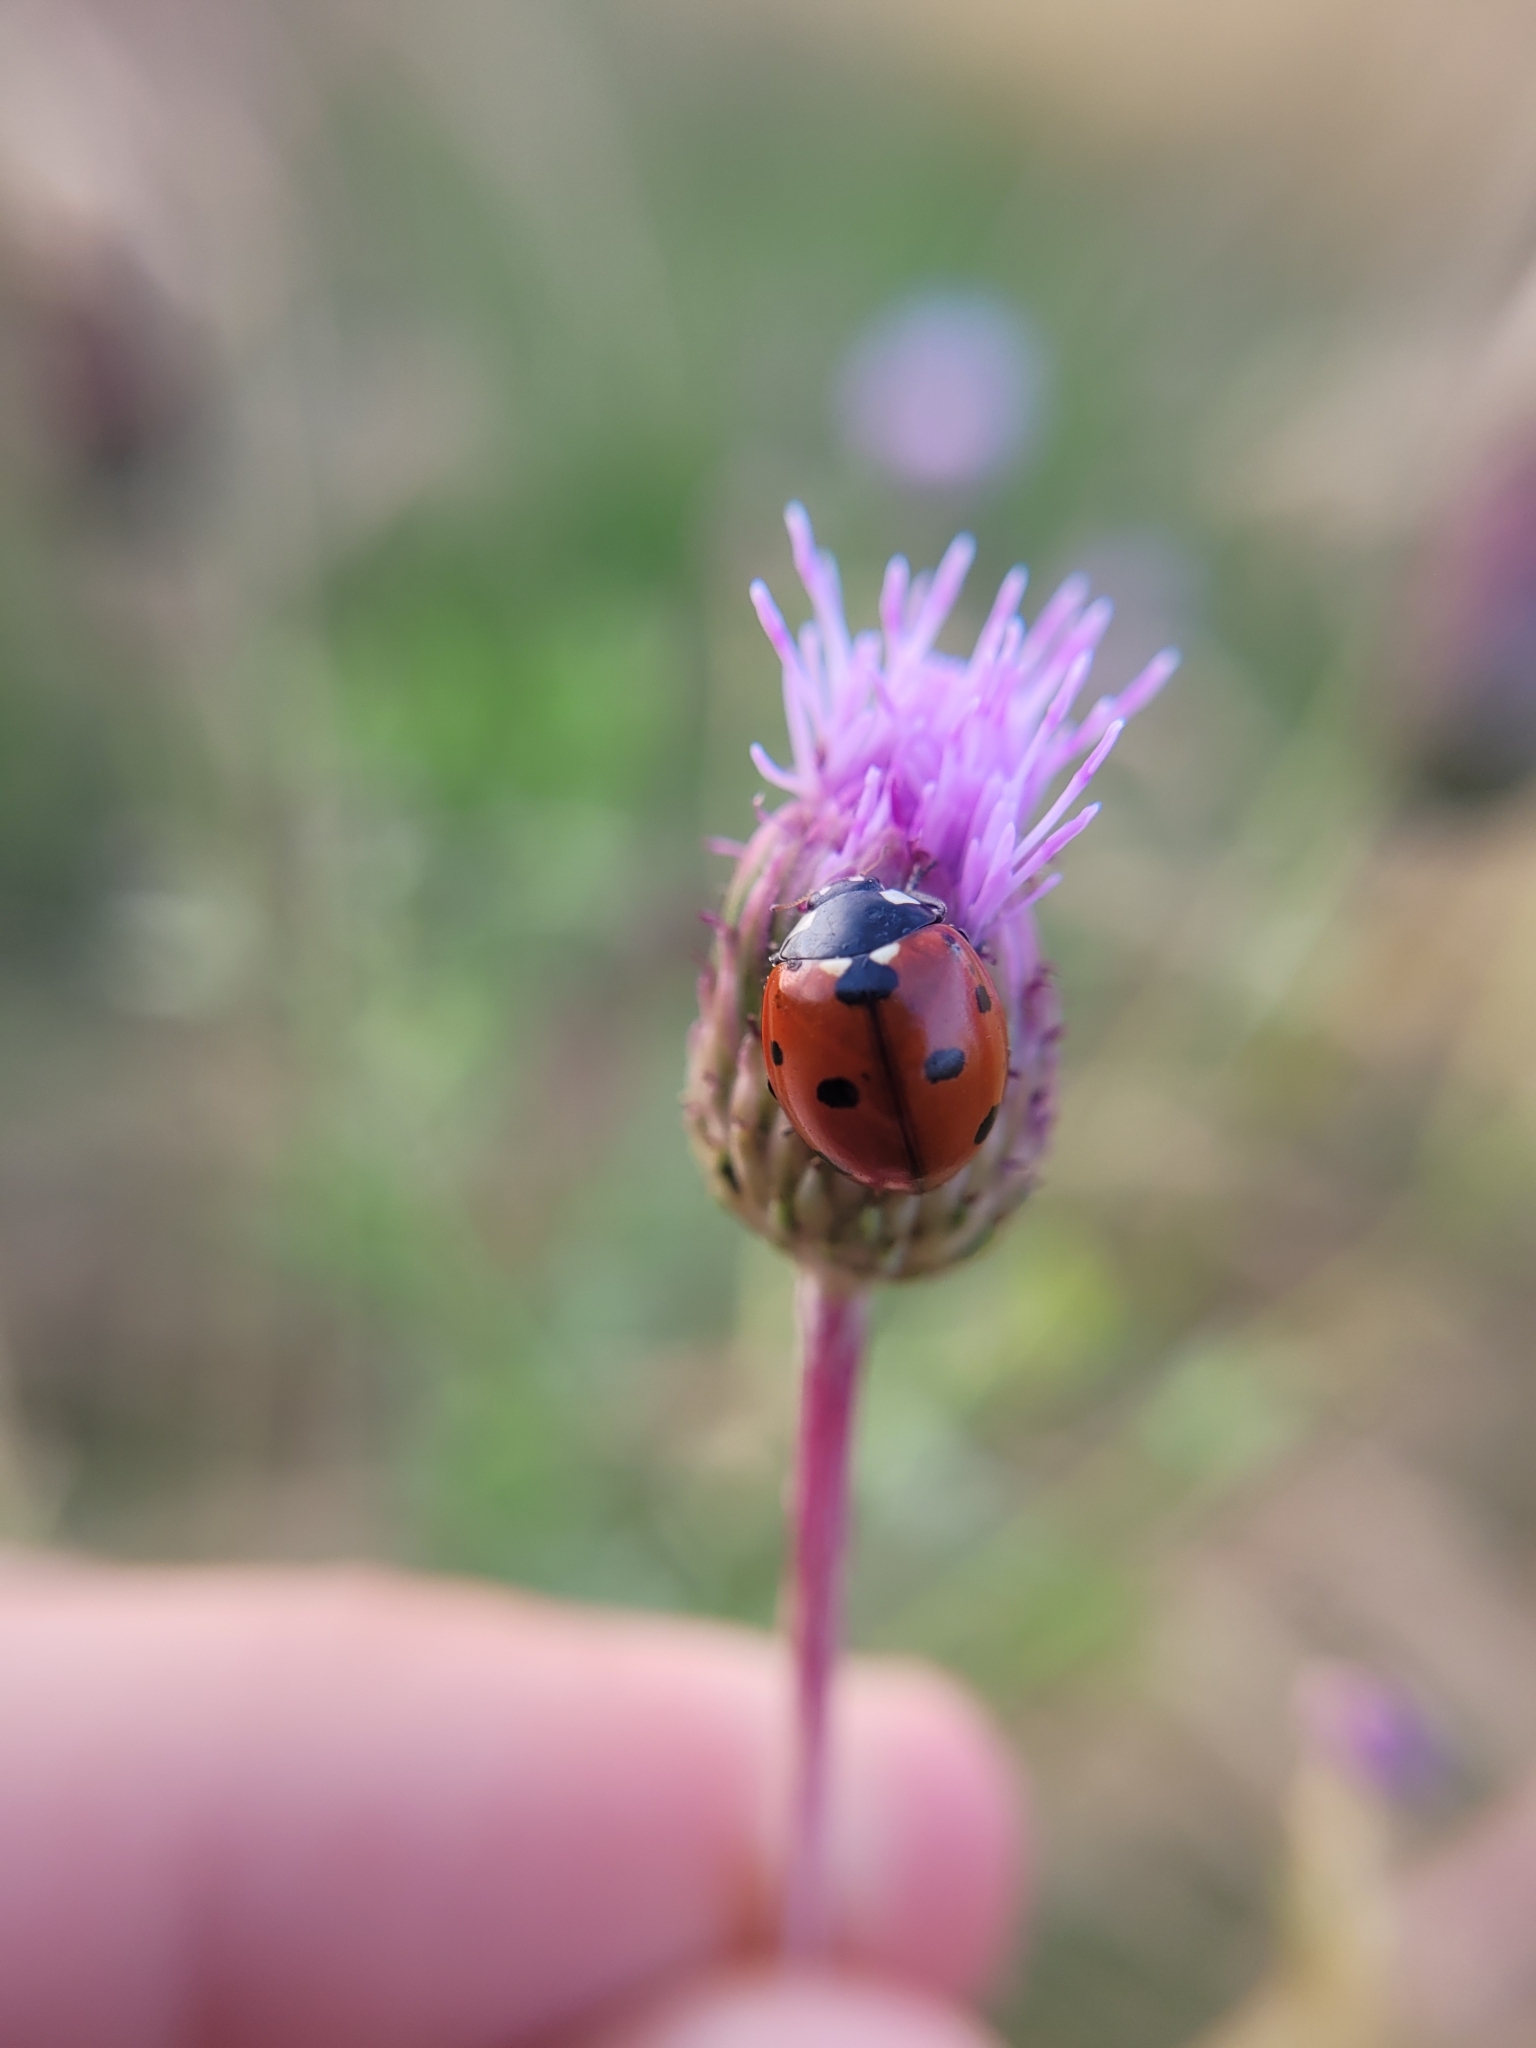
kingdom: Animalia
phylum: Arthropoda
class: Insecta
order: Coleoptera
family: Coccinellidae
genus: Coccinella
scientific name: Coccinella septempunctata
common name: Sevenspotted lady beetle
